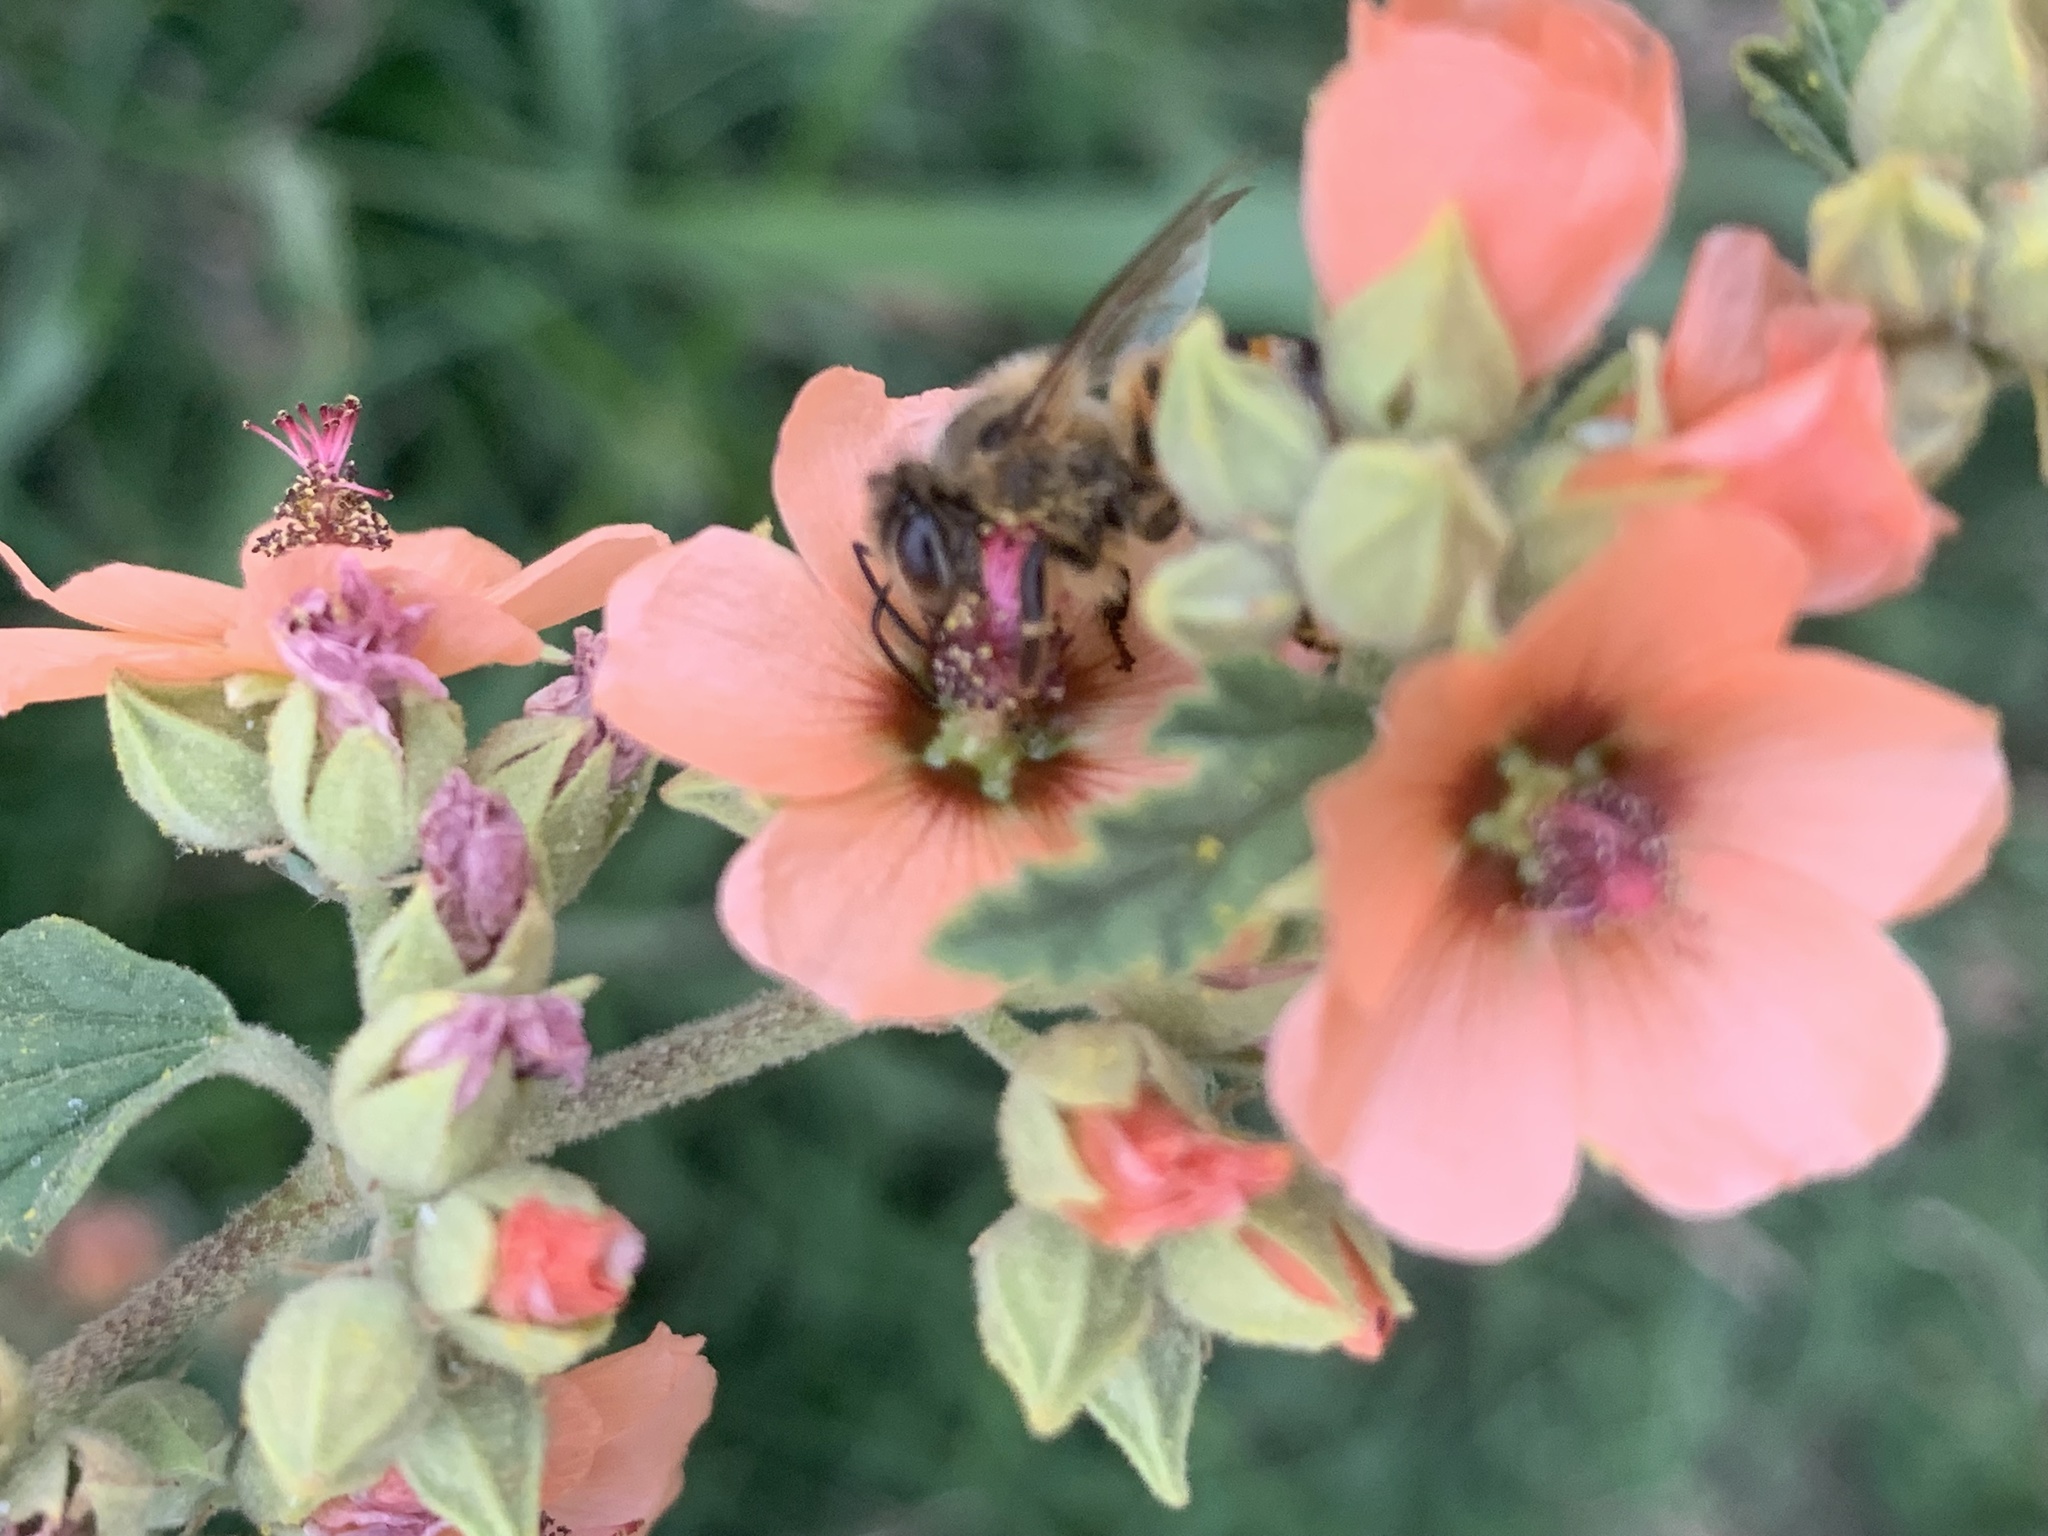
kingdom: Animalia
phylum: Arthropoda
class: Insecta
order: Hymenoptera
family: Apidae
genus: Apis
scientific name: Apis mellifera
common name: Honey bee
